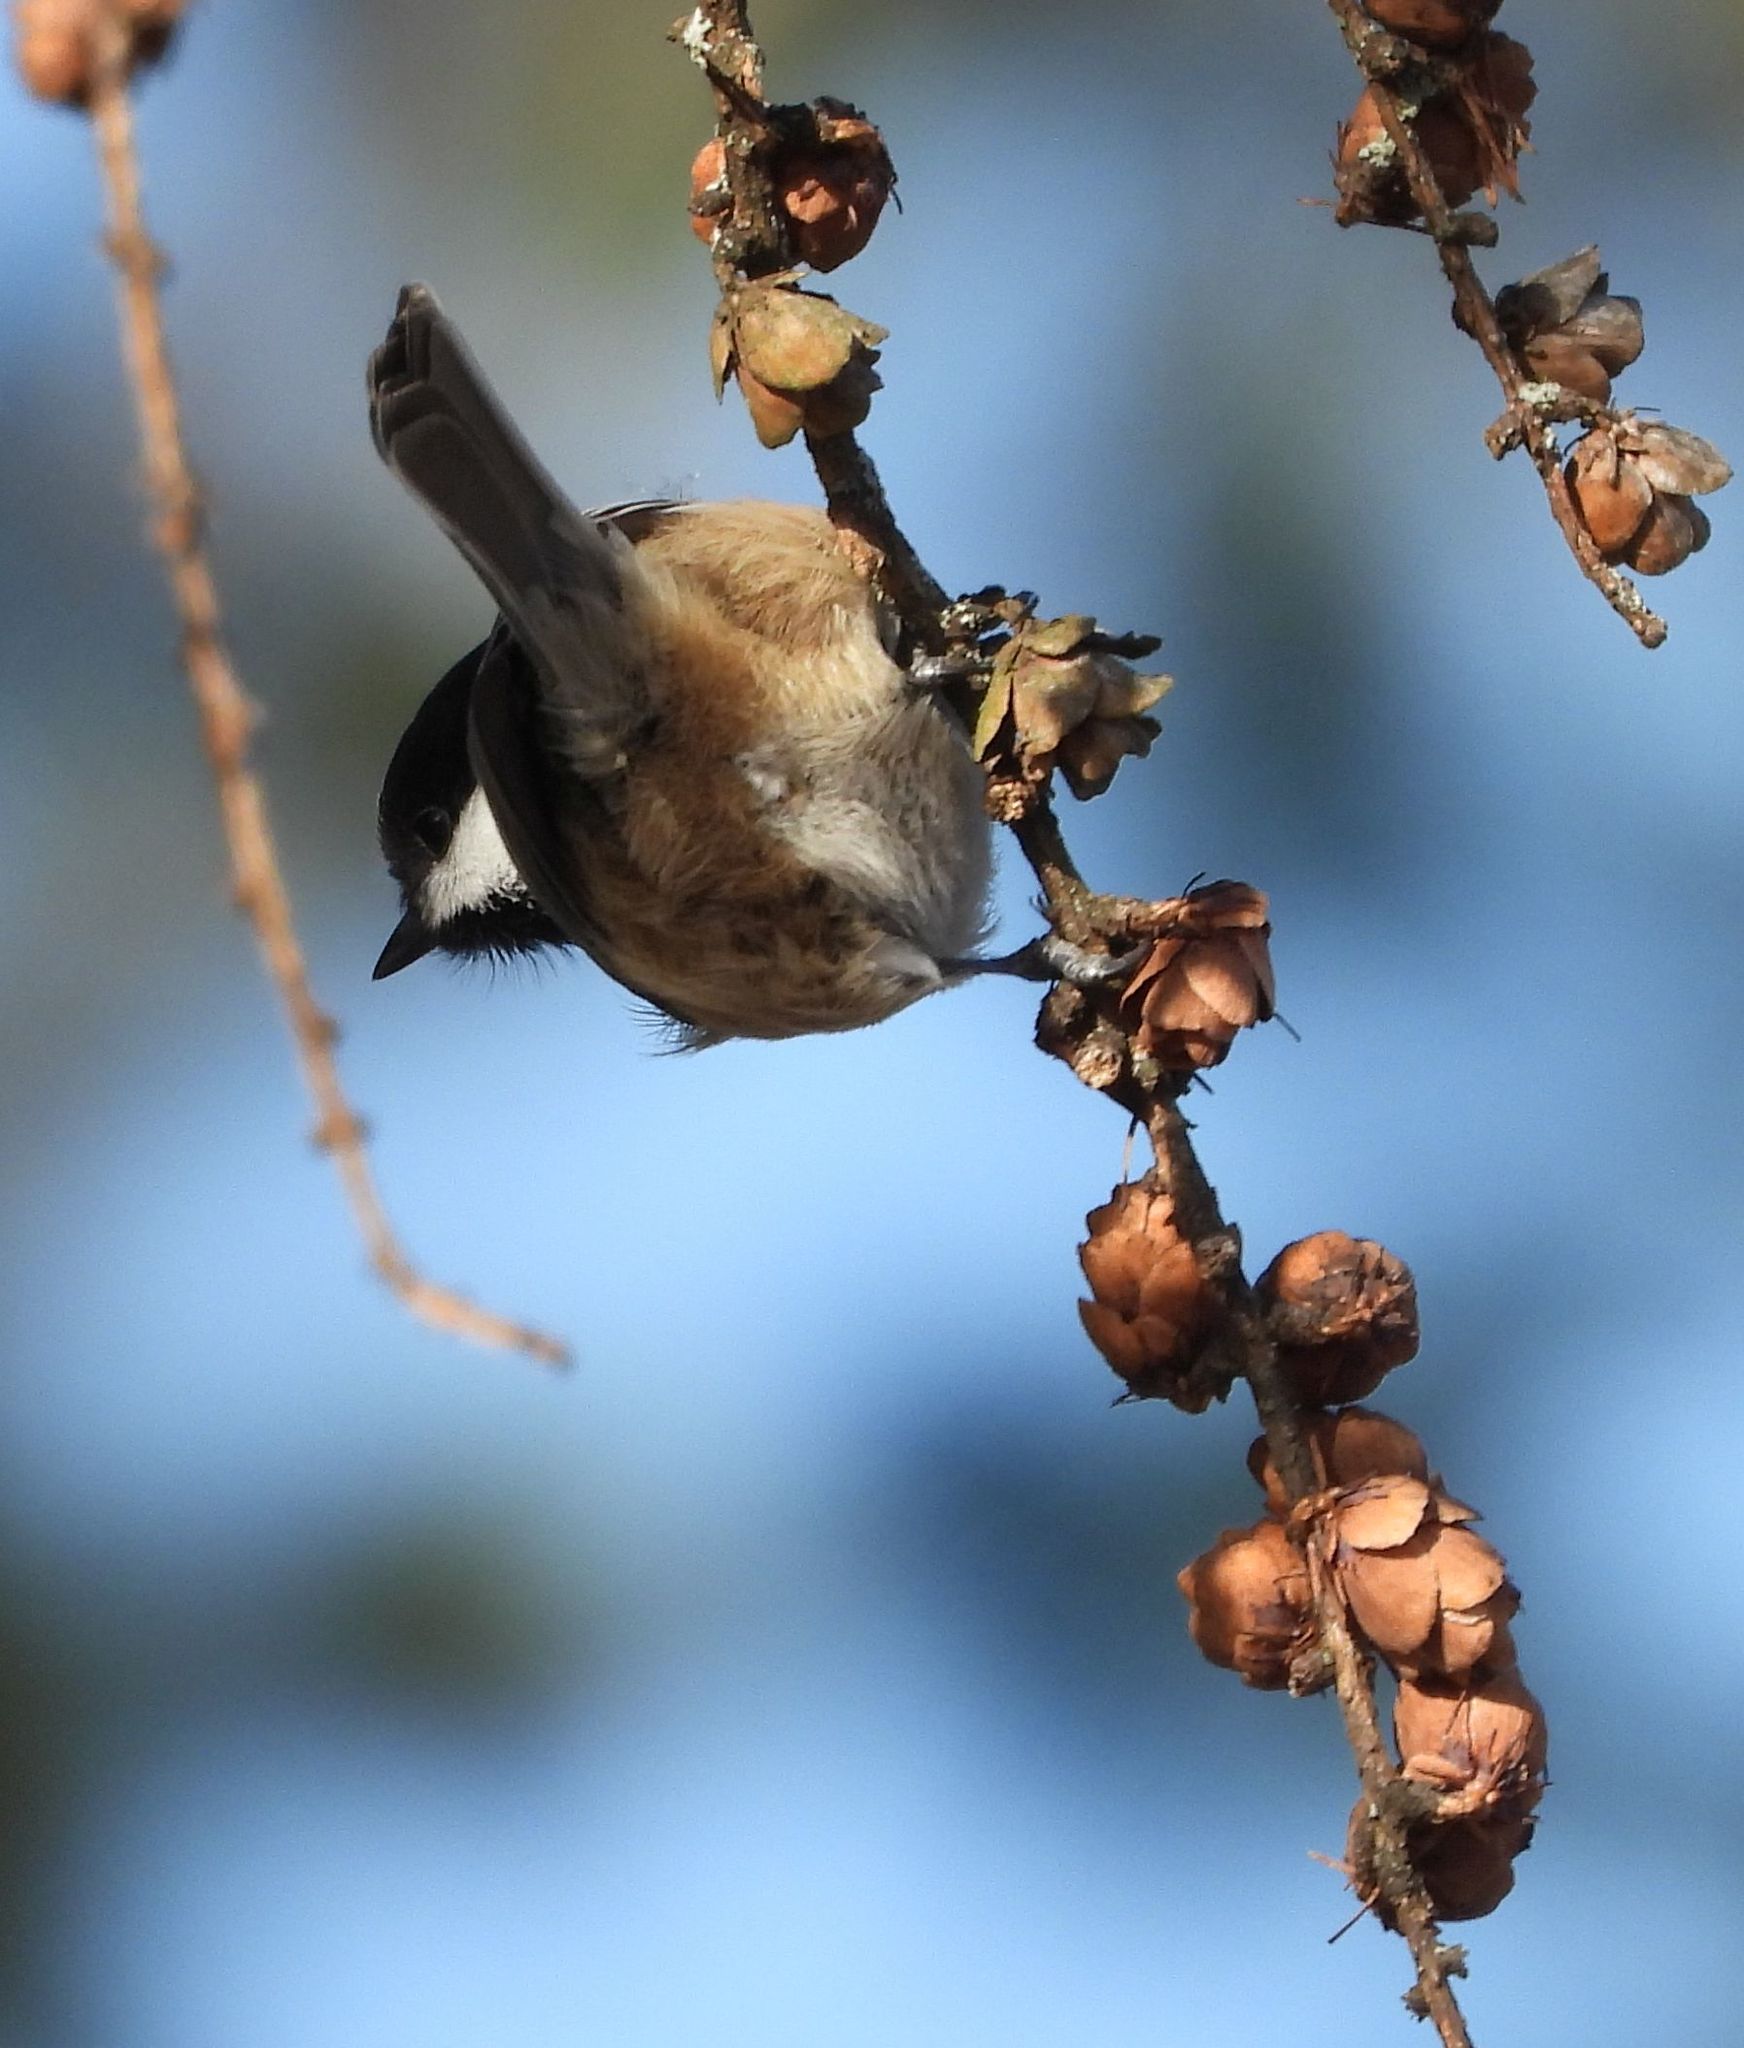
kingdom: Animalia
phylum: Chordata
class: Aves
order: Passeriformes
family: Paridae
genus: Poecile
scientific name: Poecile atricapillus
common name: Black-capped chickadee
